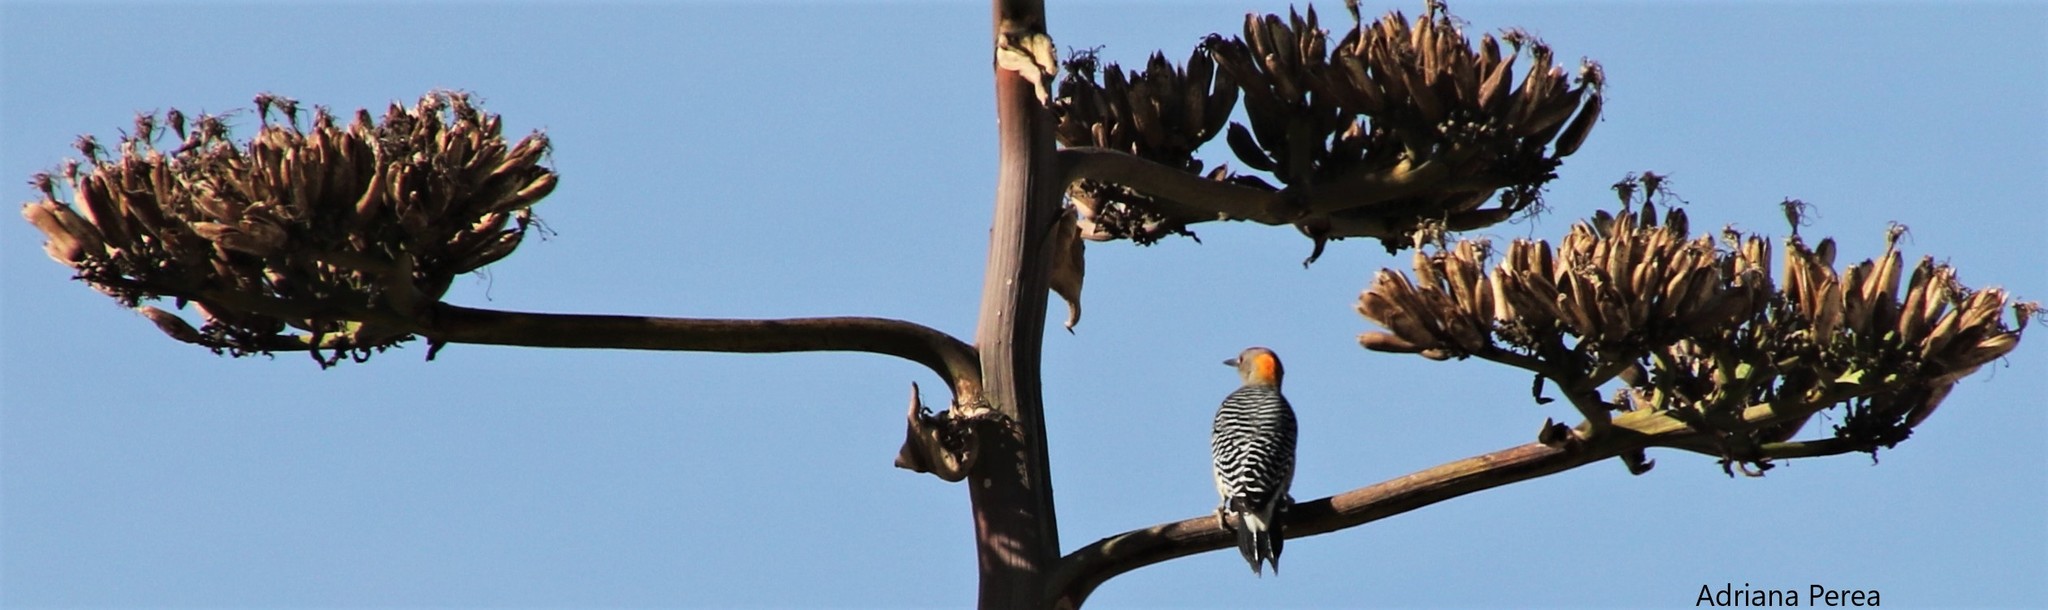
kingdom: Animalia
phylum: Chordata
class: Aves
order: Piciformes
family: Picidae
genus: Melanerpes
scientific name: Melanerpes aurifrons
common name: Golden-fronted woodpecker
